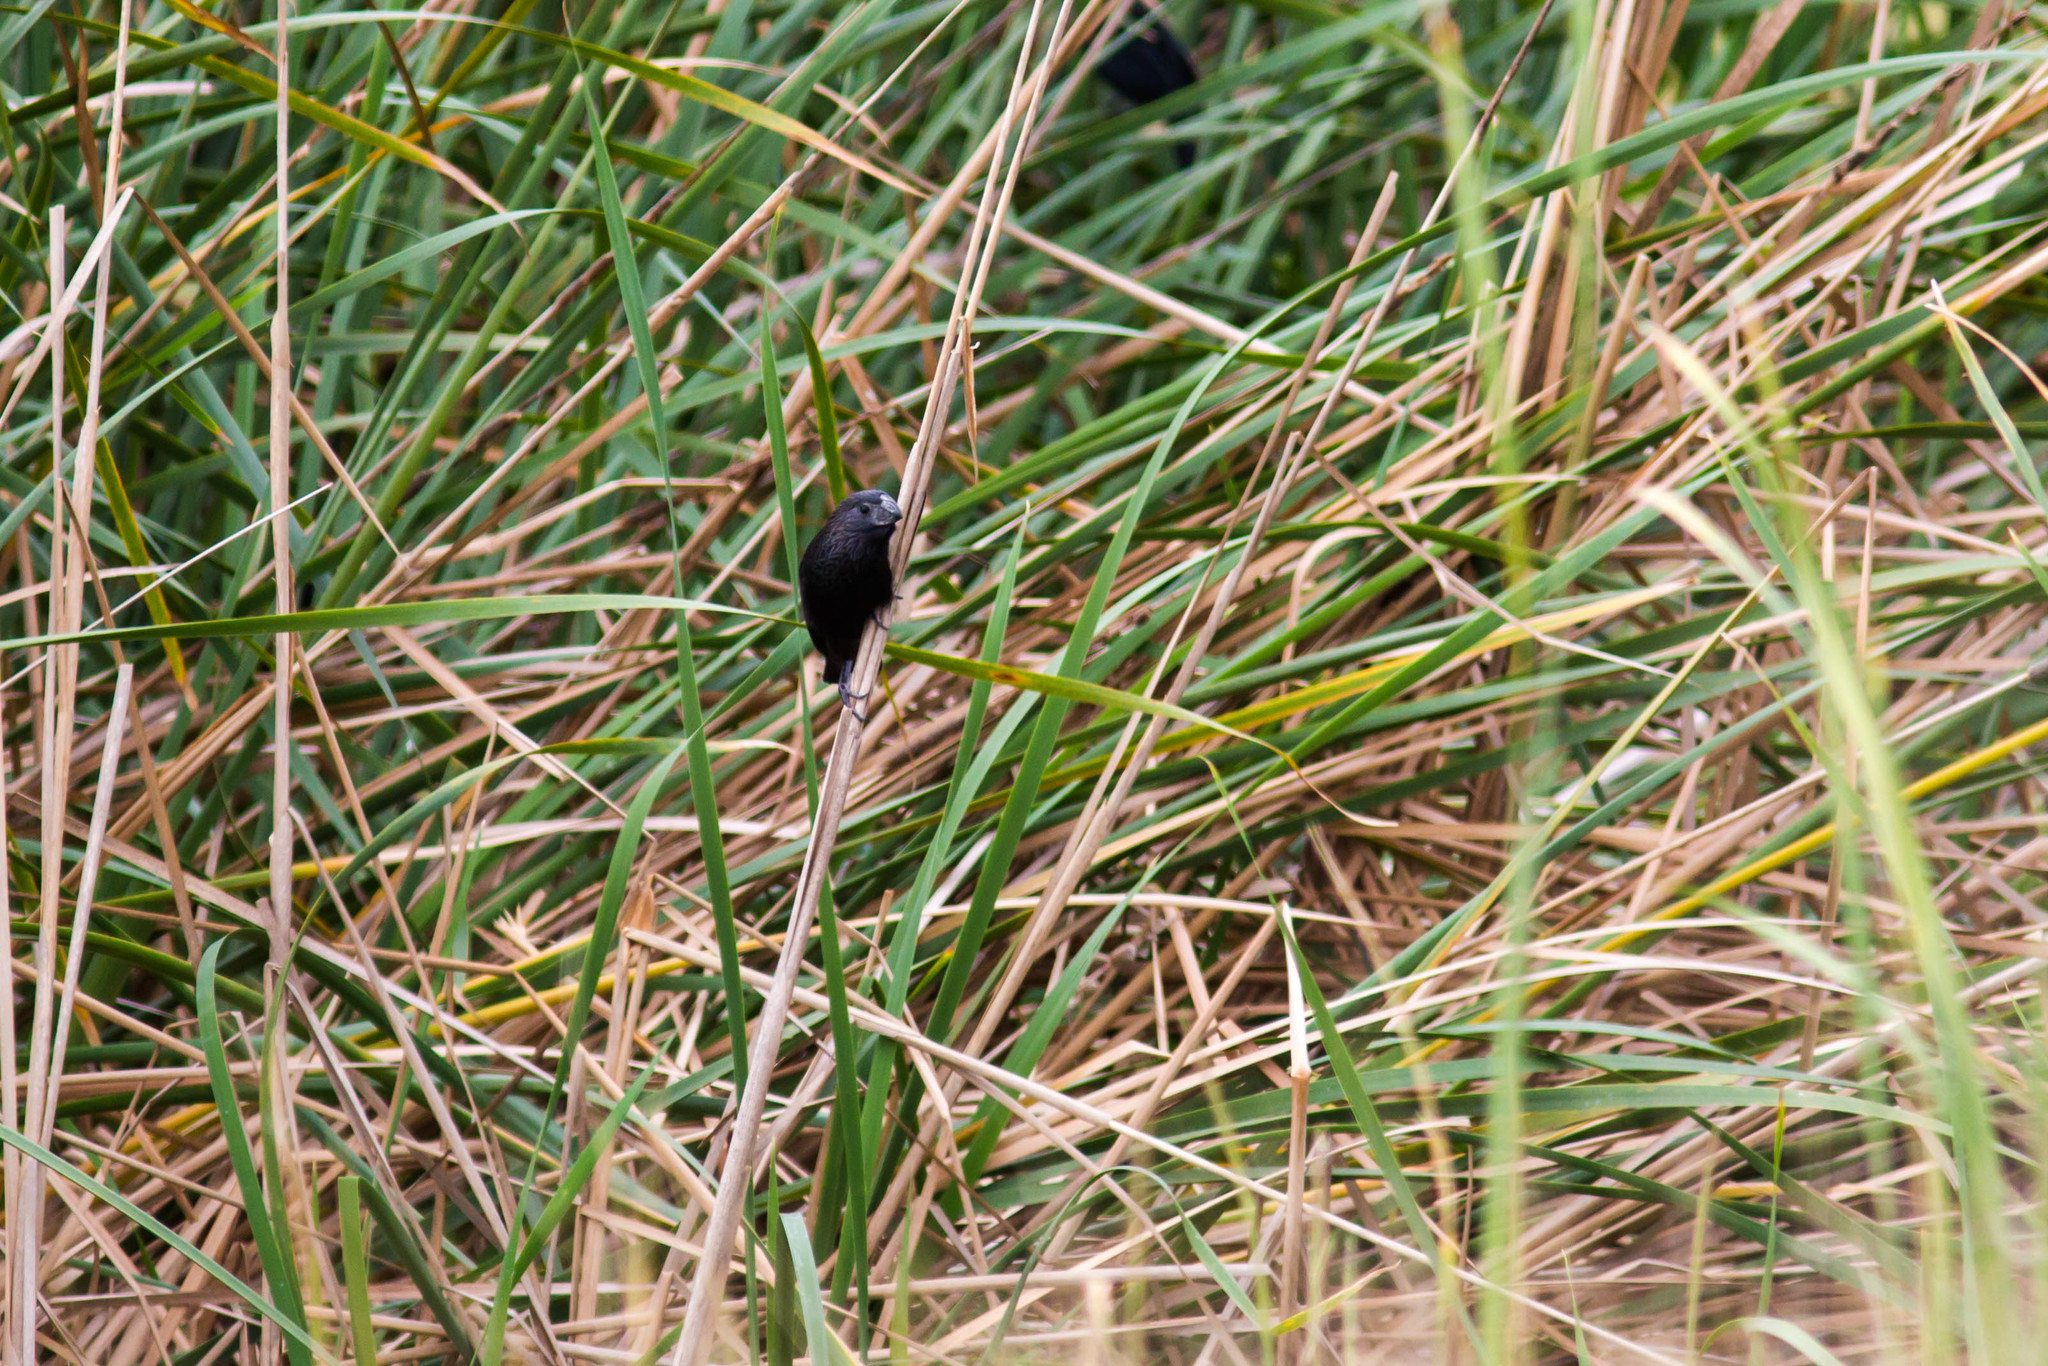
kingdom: Animalia
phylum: Chordata
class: Aves
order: Cuculiformes
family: Cuculidae
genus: Crotophaga
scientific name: Crotophaga sulcirostris
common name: Groove-billed ani
